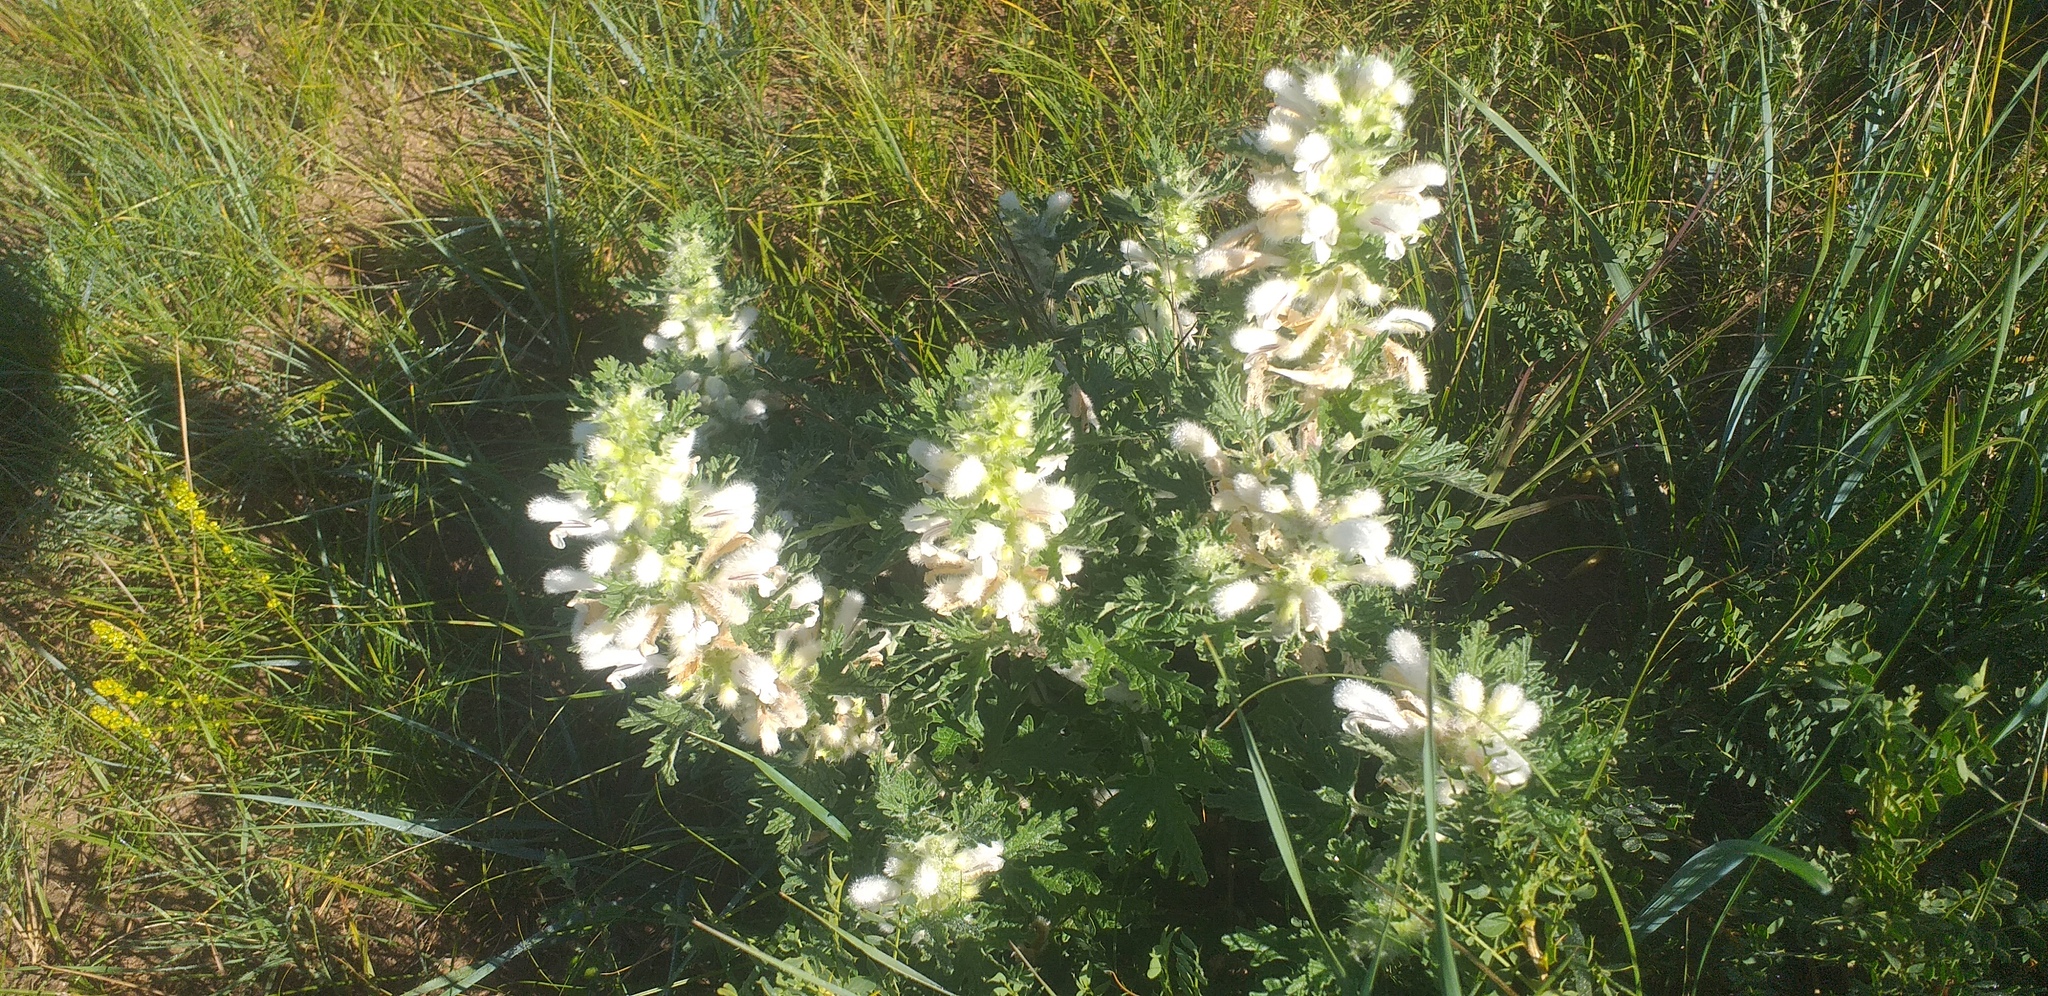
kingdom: Plantae
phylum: Tracheophyta
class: Magnoliopsida
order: Lamiales
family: Lamiaceae
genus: Panzerina
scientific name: Panzerina lanata
